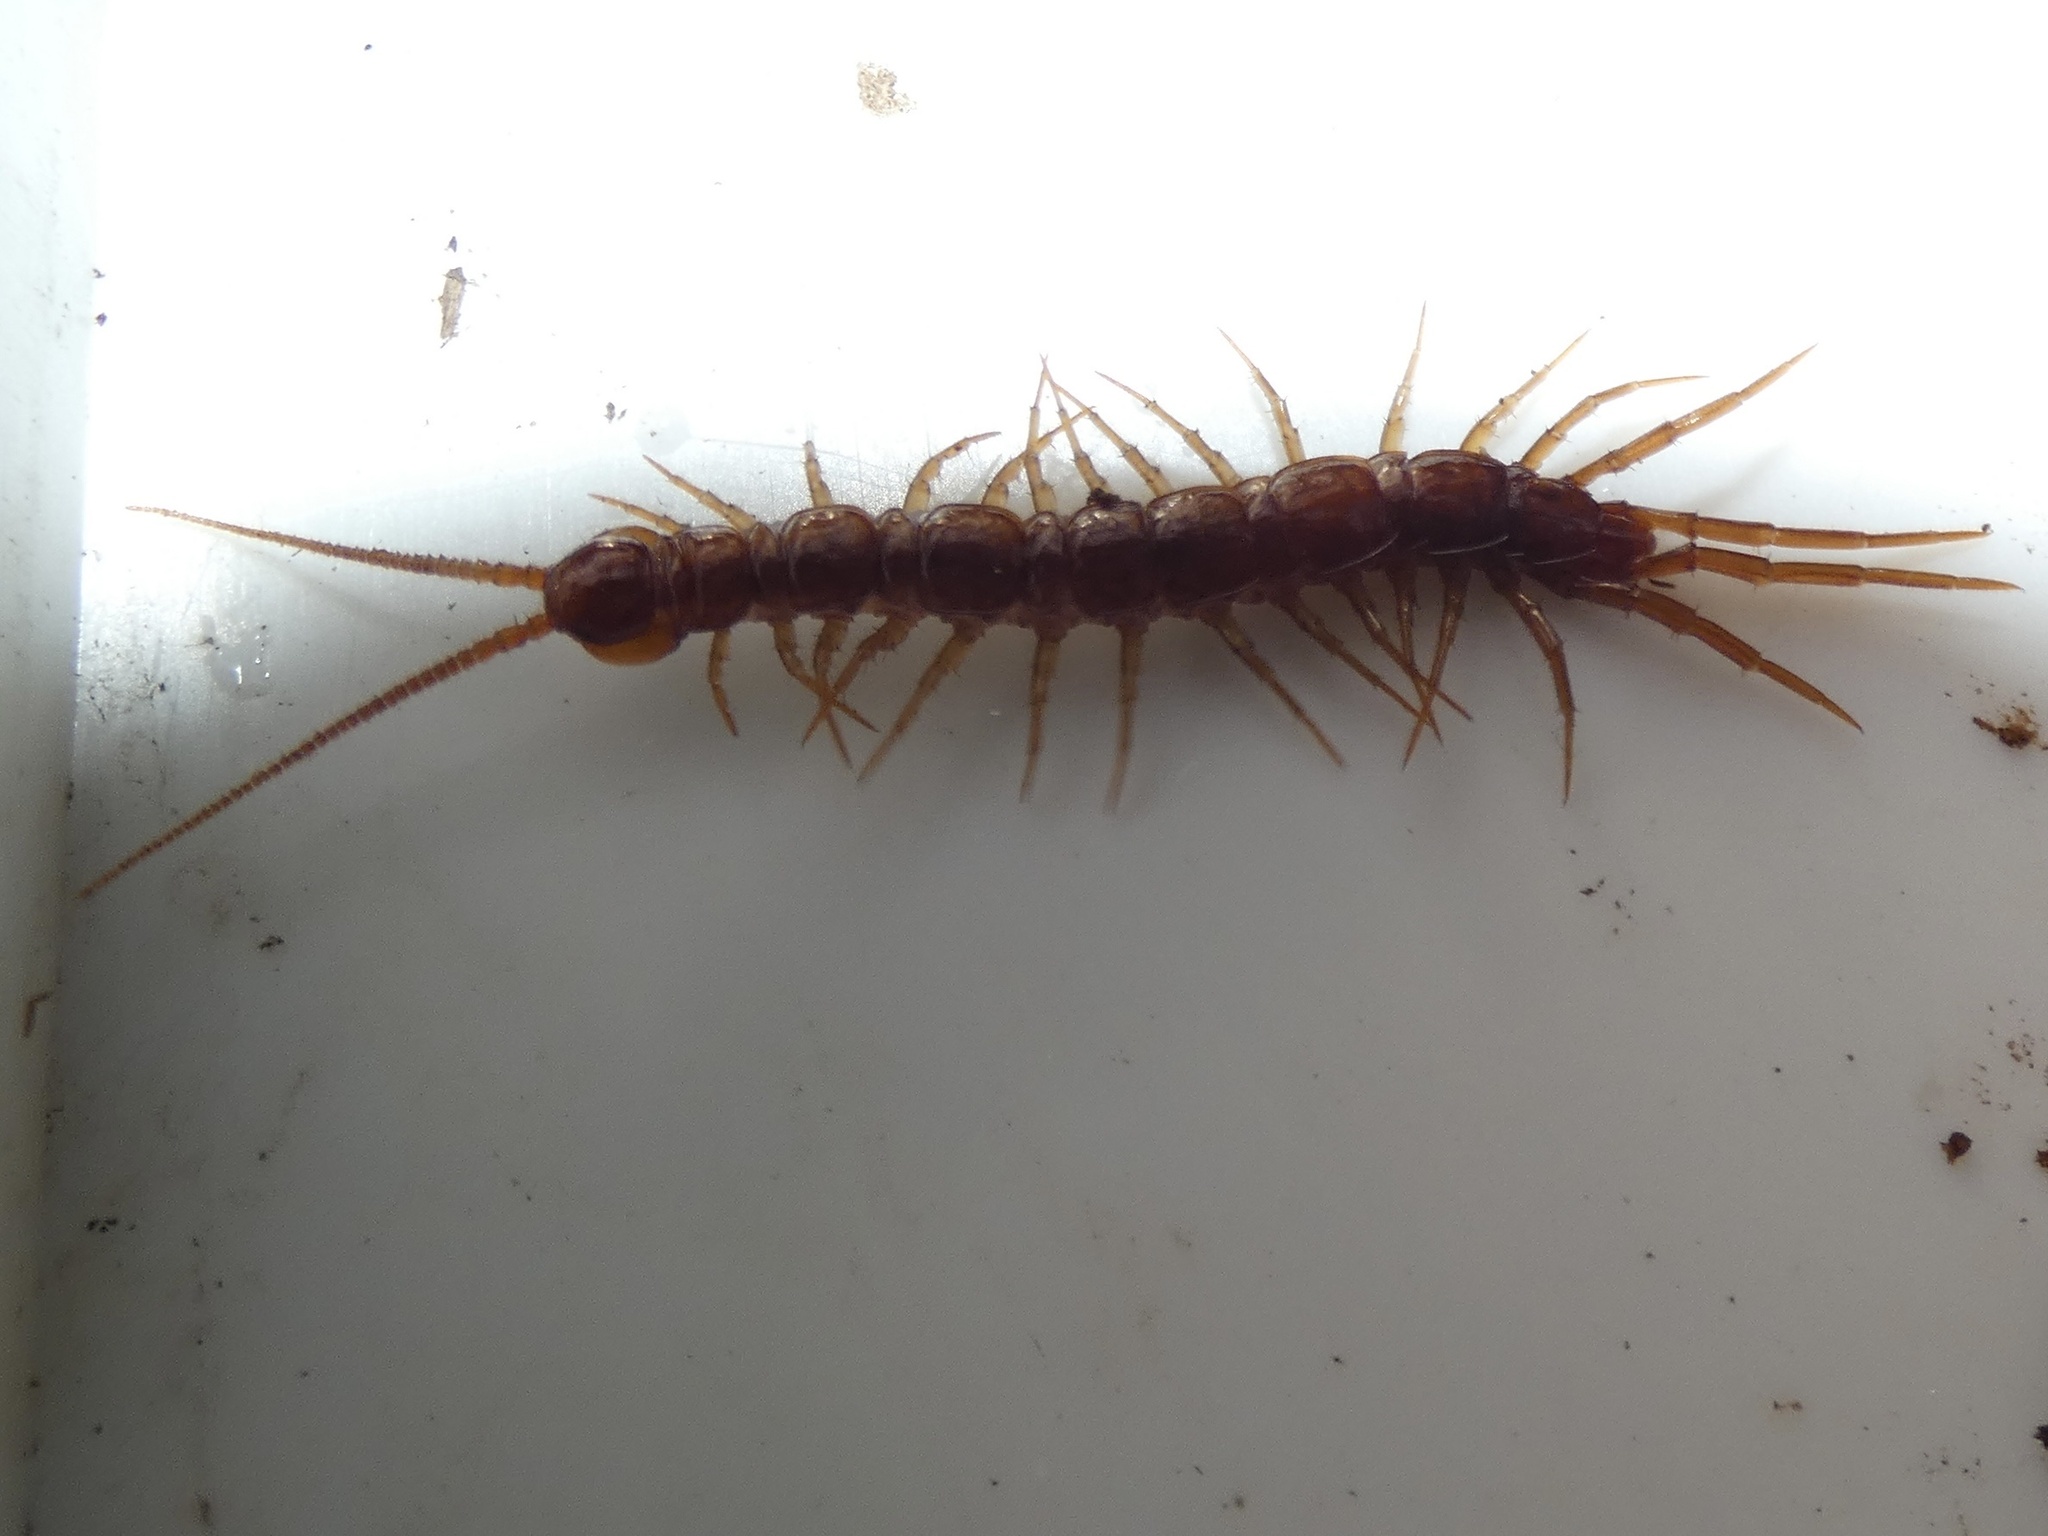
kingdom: Animalia
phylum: Arthropoda
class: Chilopoda
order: Lithobiomorpha
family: Lithobiidae
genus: Lithobius
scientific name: Lithobius forficatus
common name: Centipede
